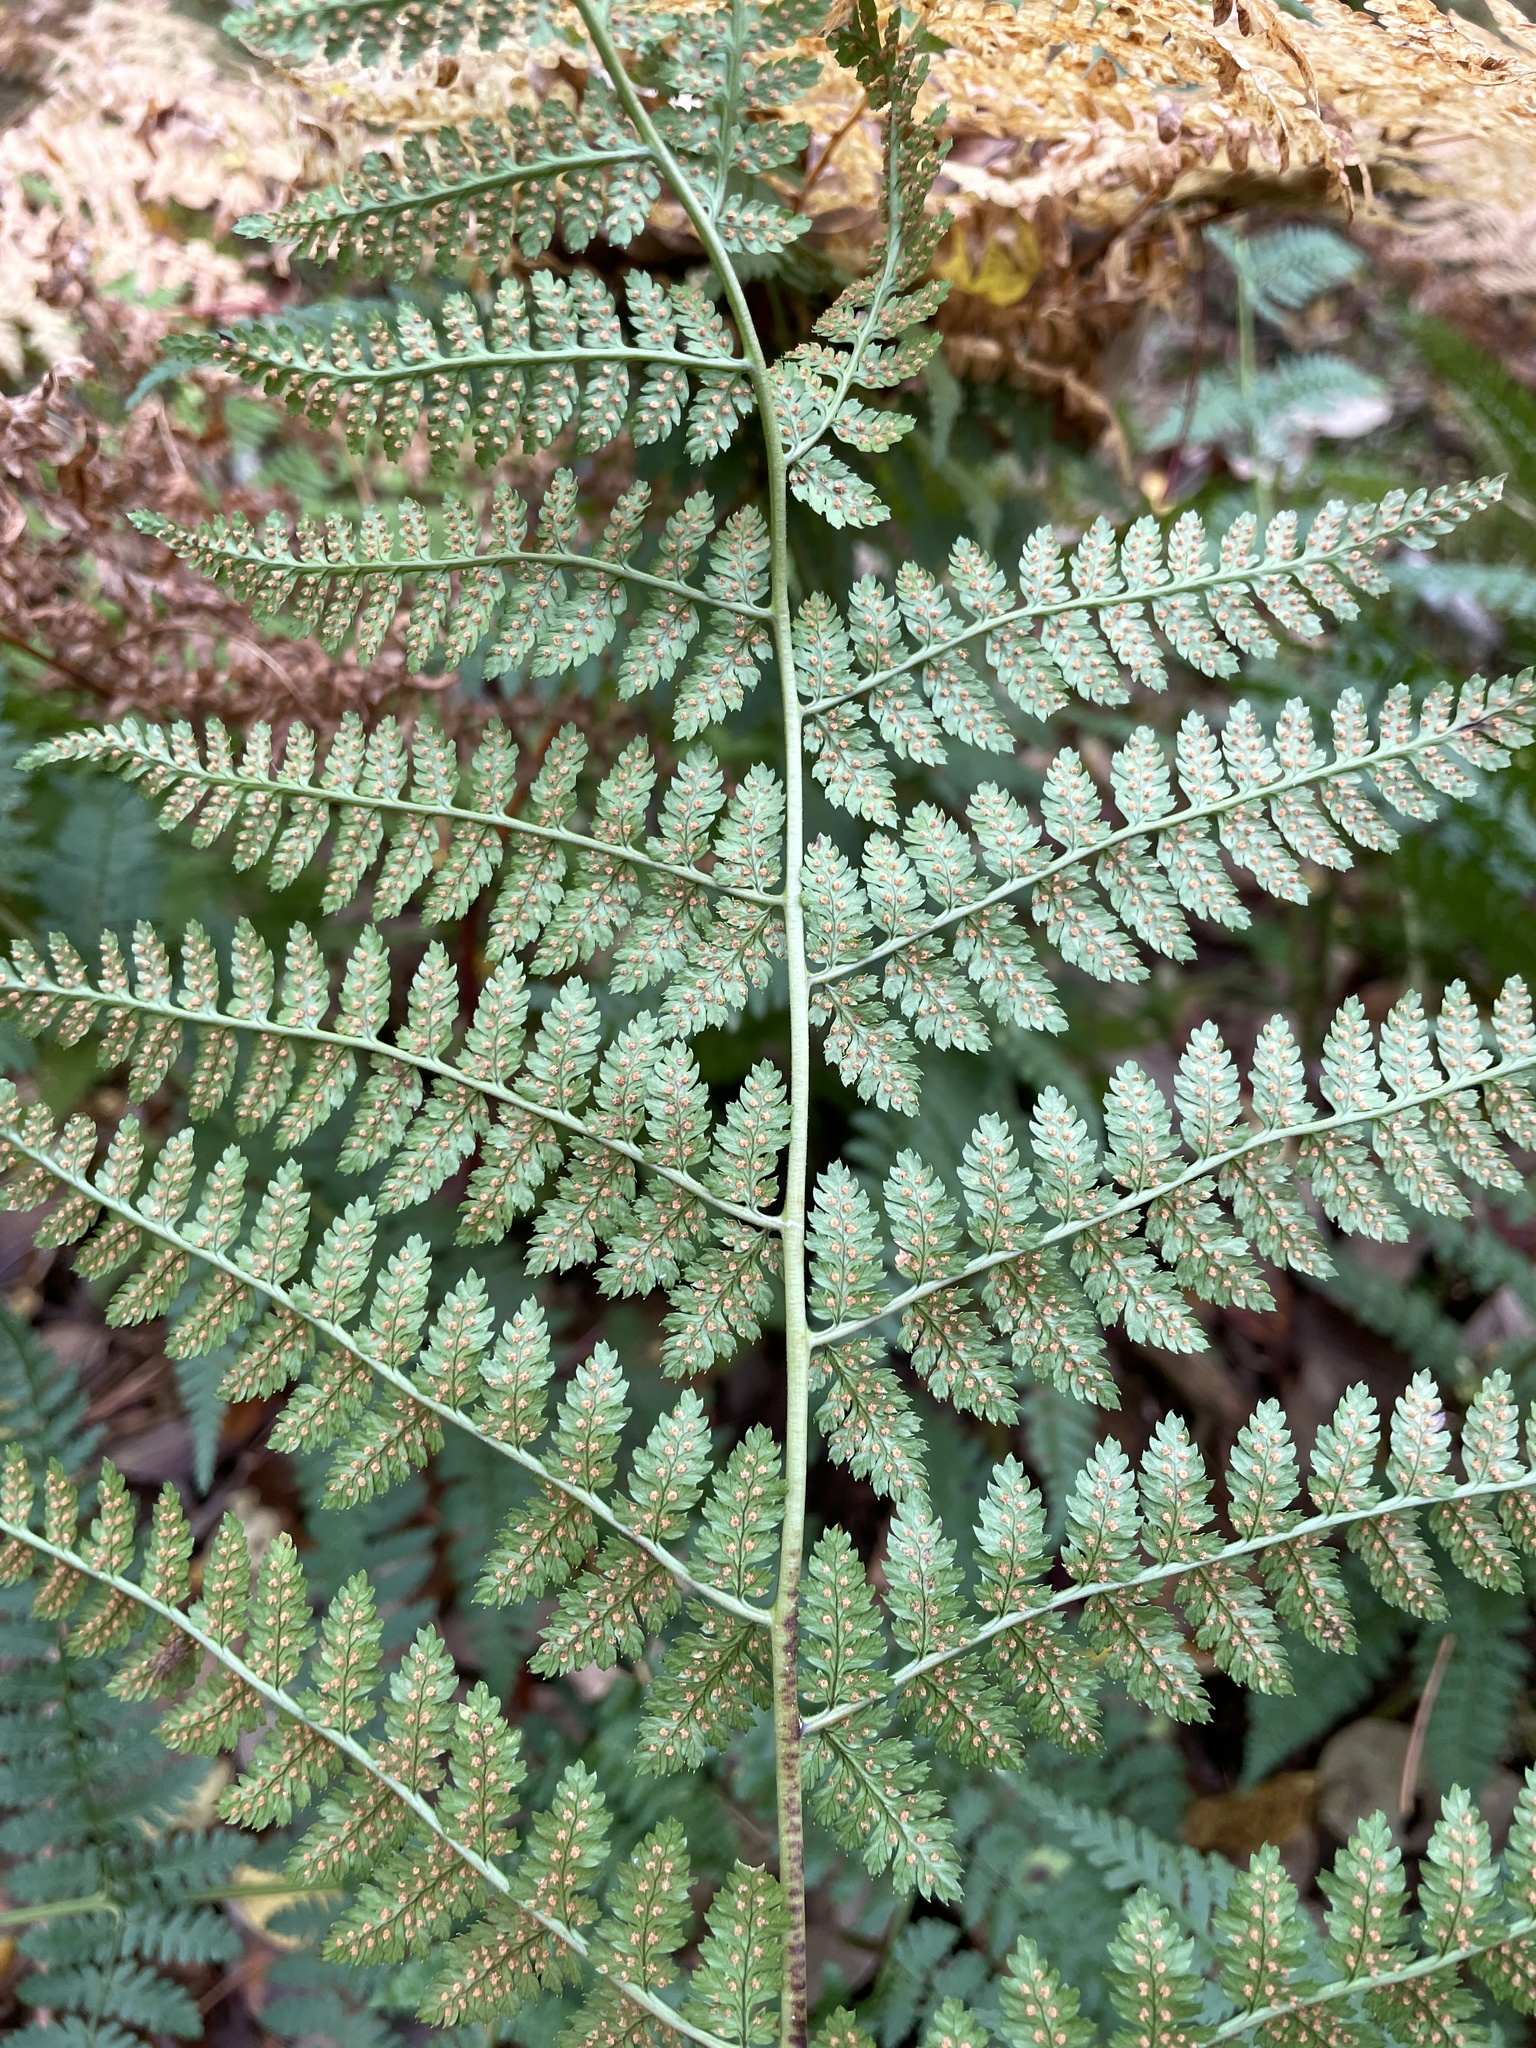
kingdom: Plantae
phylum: Tracheophyta
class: Polypodiopsida
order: Polypodiales
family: Dryopteridaceae
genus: Dryopteris
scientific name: Dryopteris intermedia
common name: Evergreen wood fern
